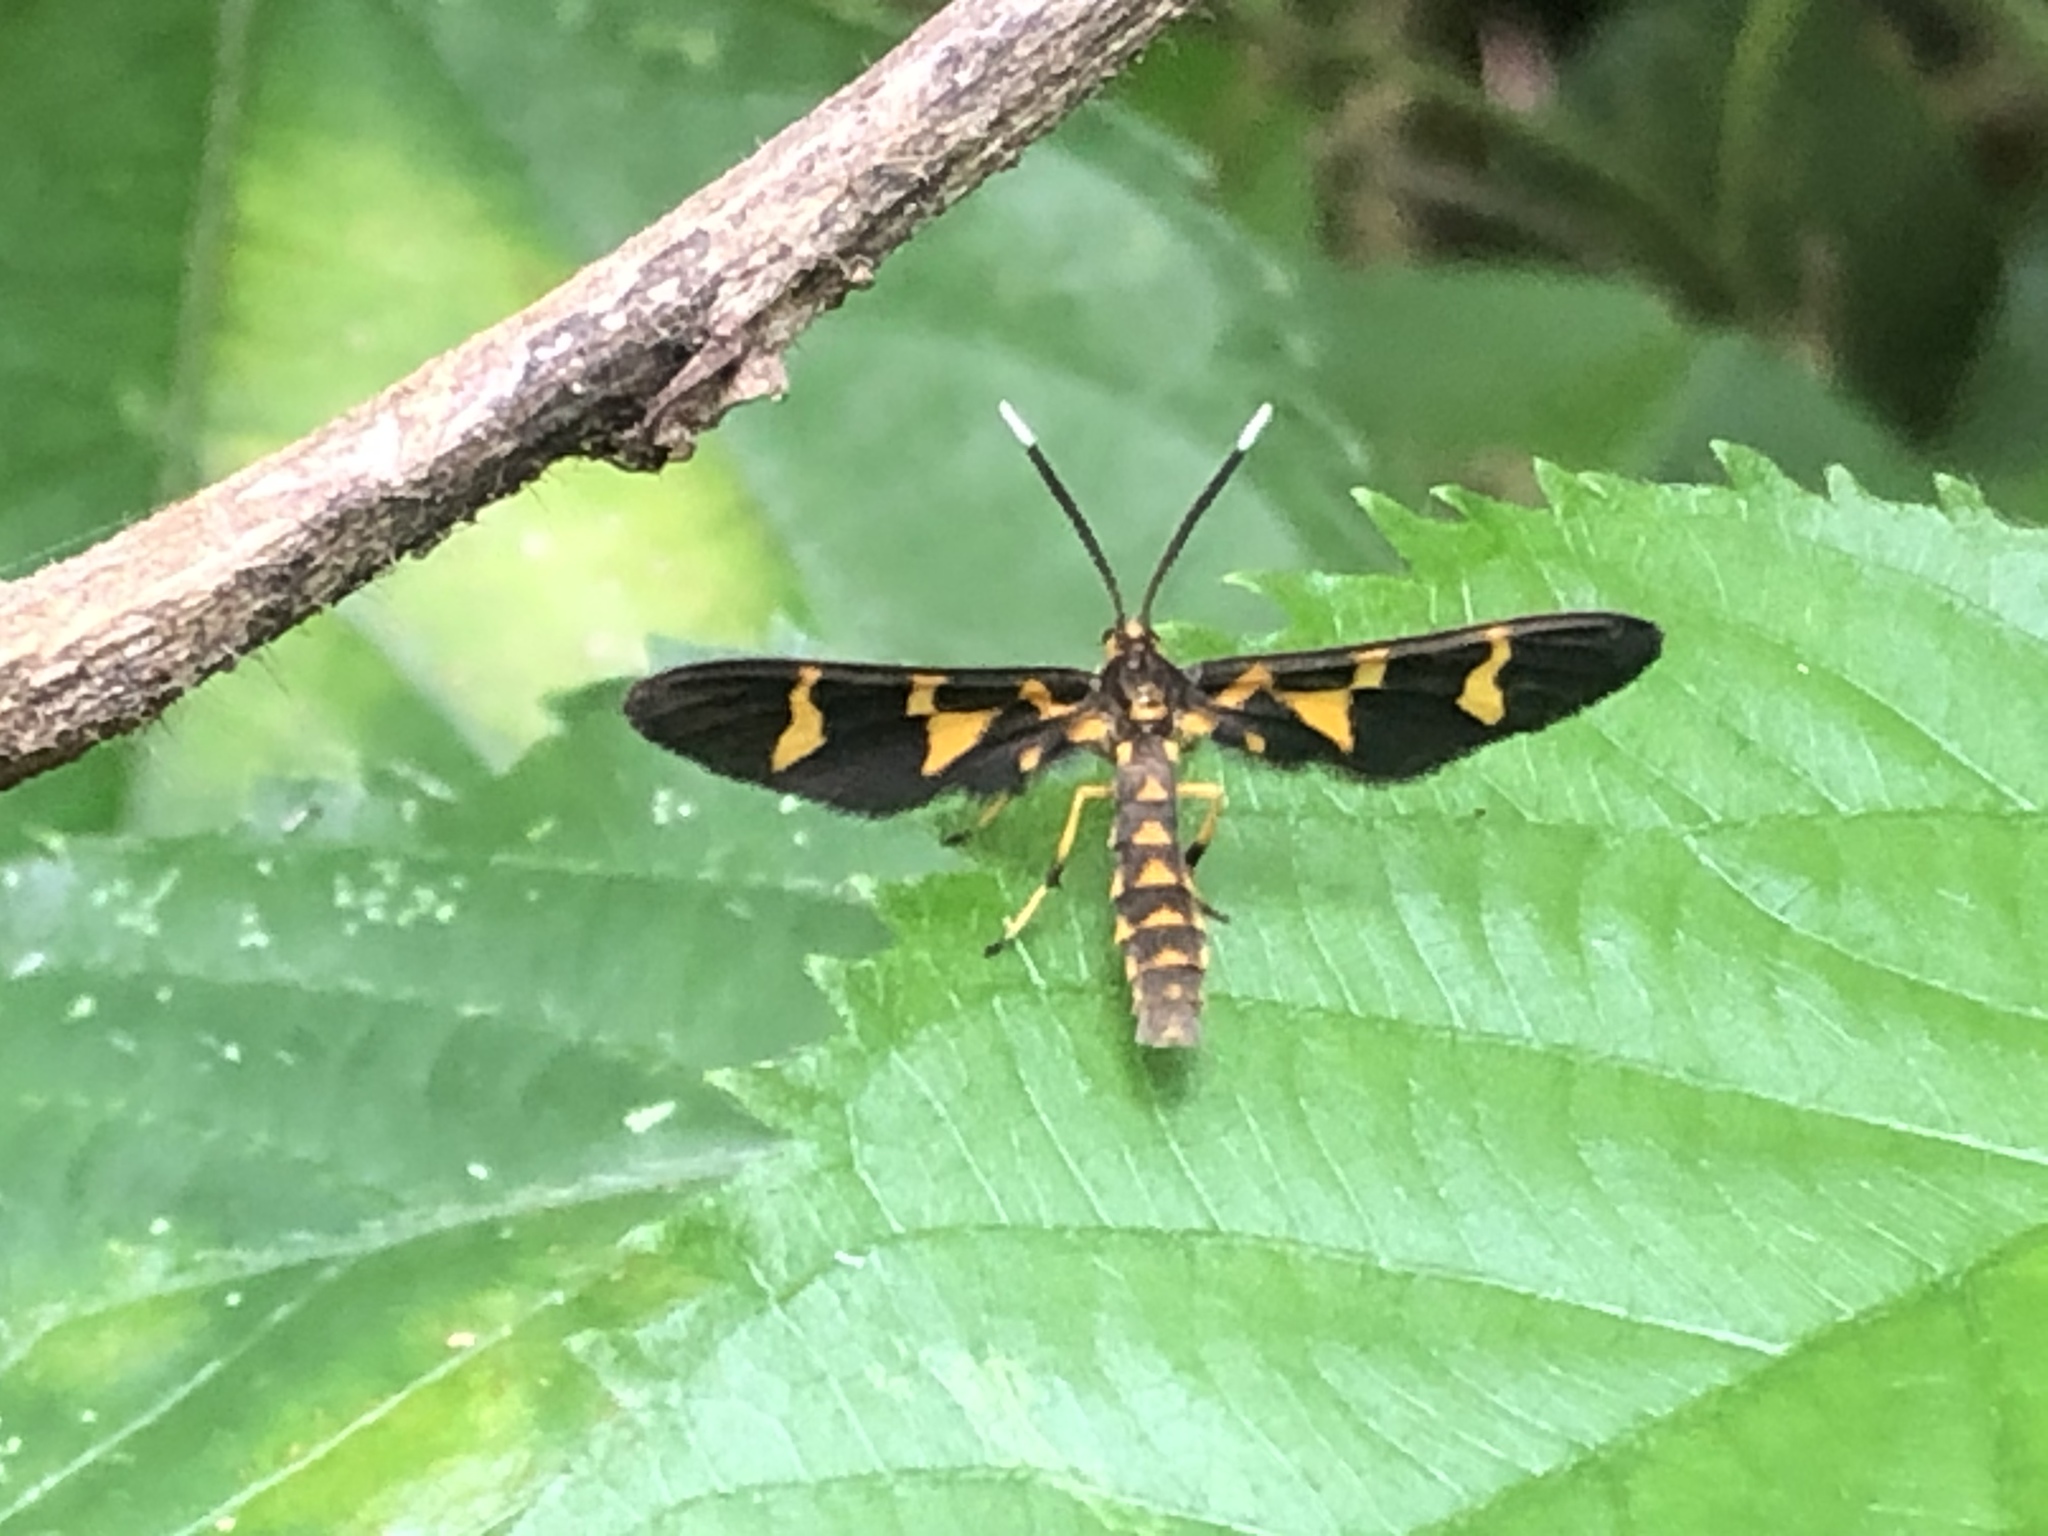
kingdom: Animalia
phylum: Arthropoda
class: Insecta
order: Lepidoptera
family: Erebidae
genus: Pseudonaclia
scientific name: Pseudonaclia bifasciata
